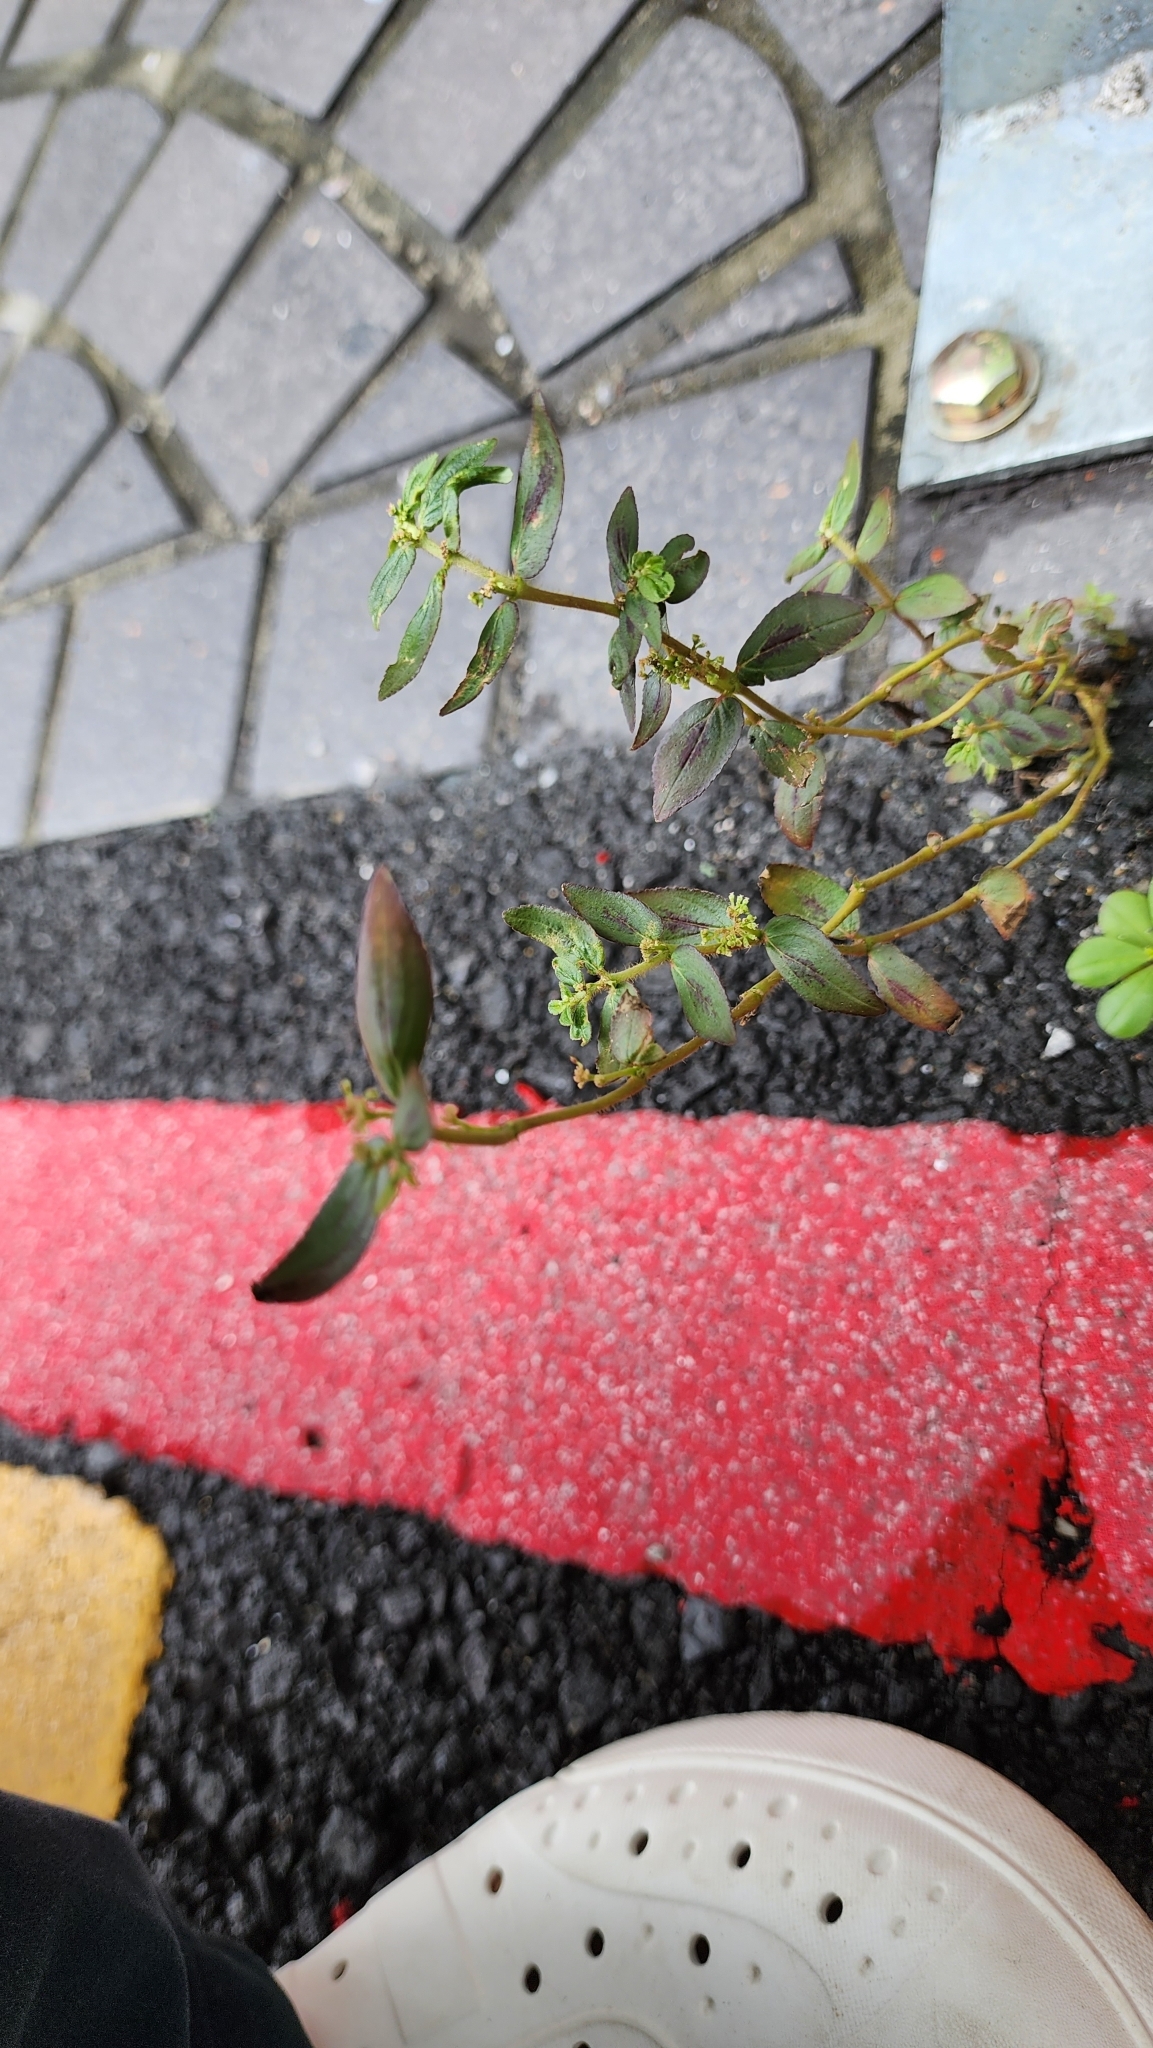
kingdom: Plantae
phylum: Tracheophyta
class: Magnoliopsida
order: Malpighiales
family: Euphorbiaceae
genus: Euphorbia
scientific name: Euphorbia hirta
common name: Pillpod sandmat
